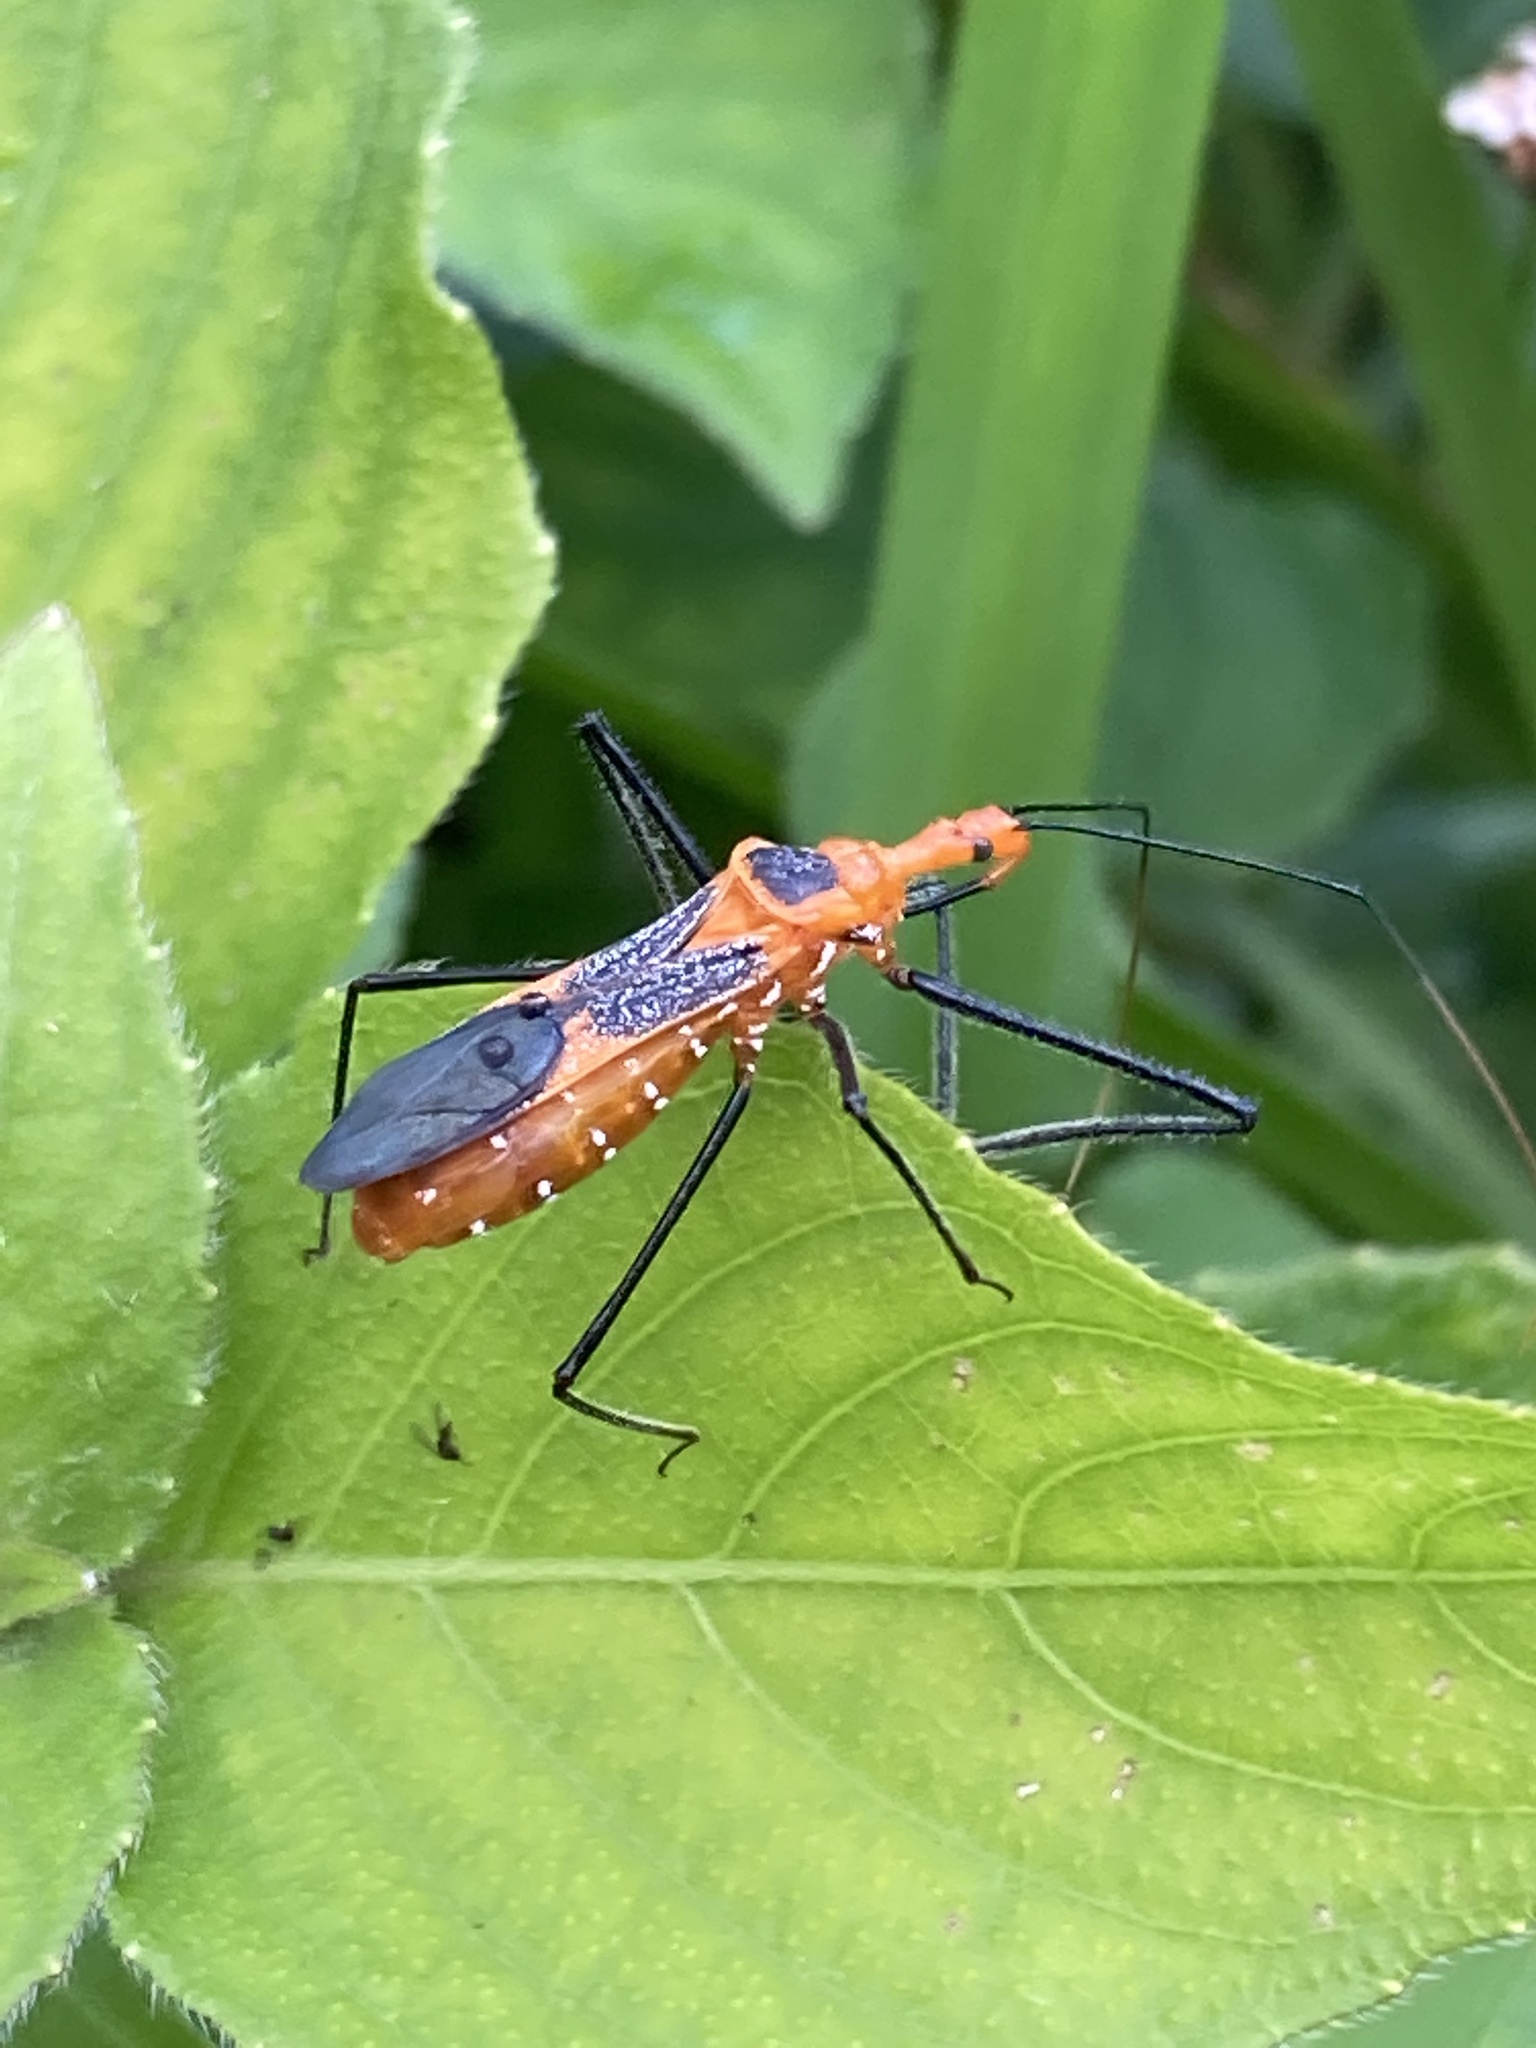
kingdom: Animalia
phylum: Arthropoda
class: Insecta
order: Hemiptera
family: Reduviidae
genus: Zelus
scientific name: Zelus longipes
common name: Milkweed assassin bug
